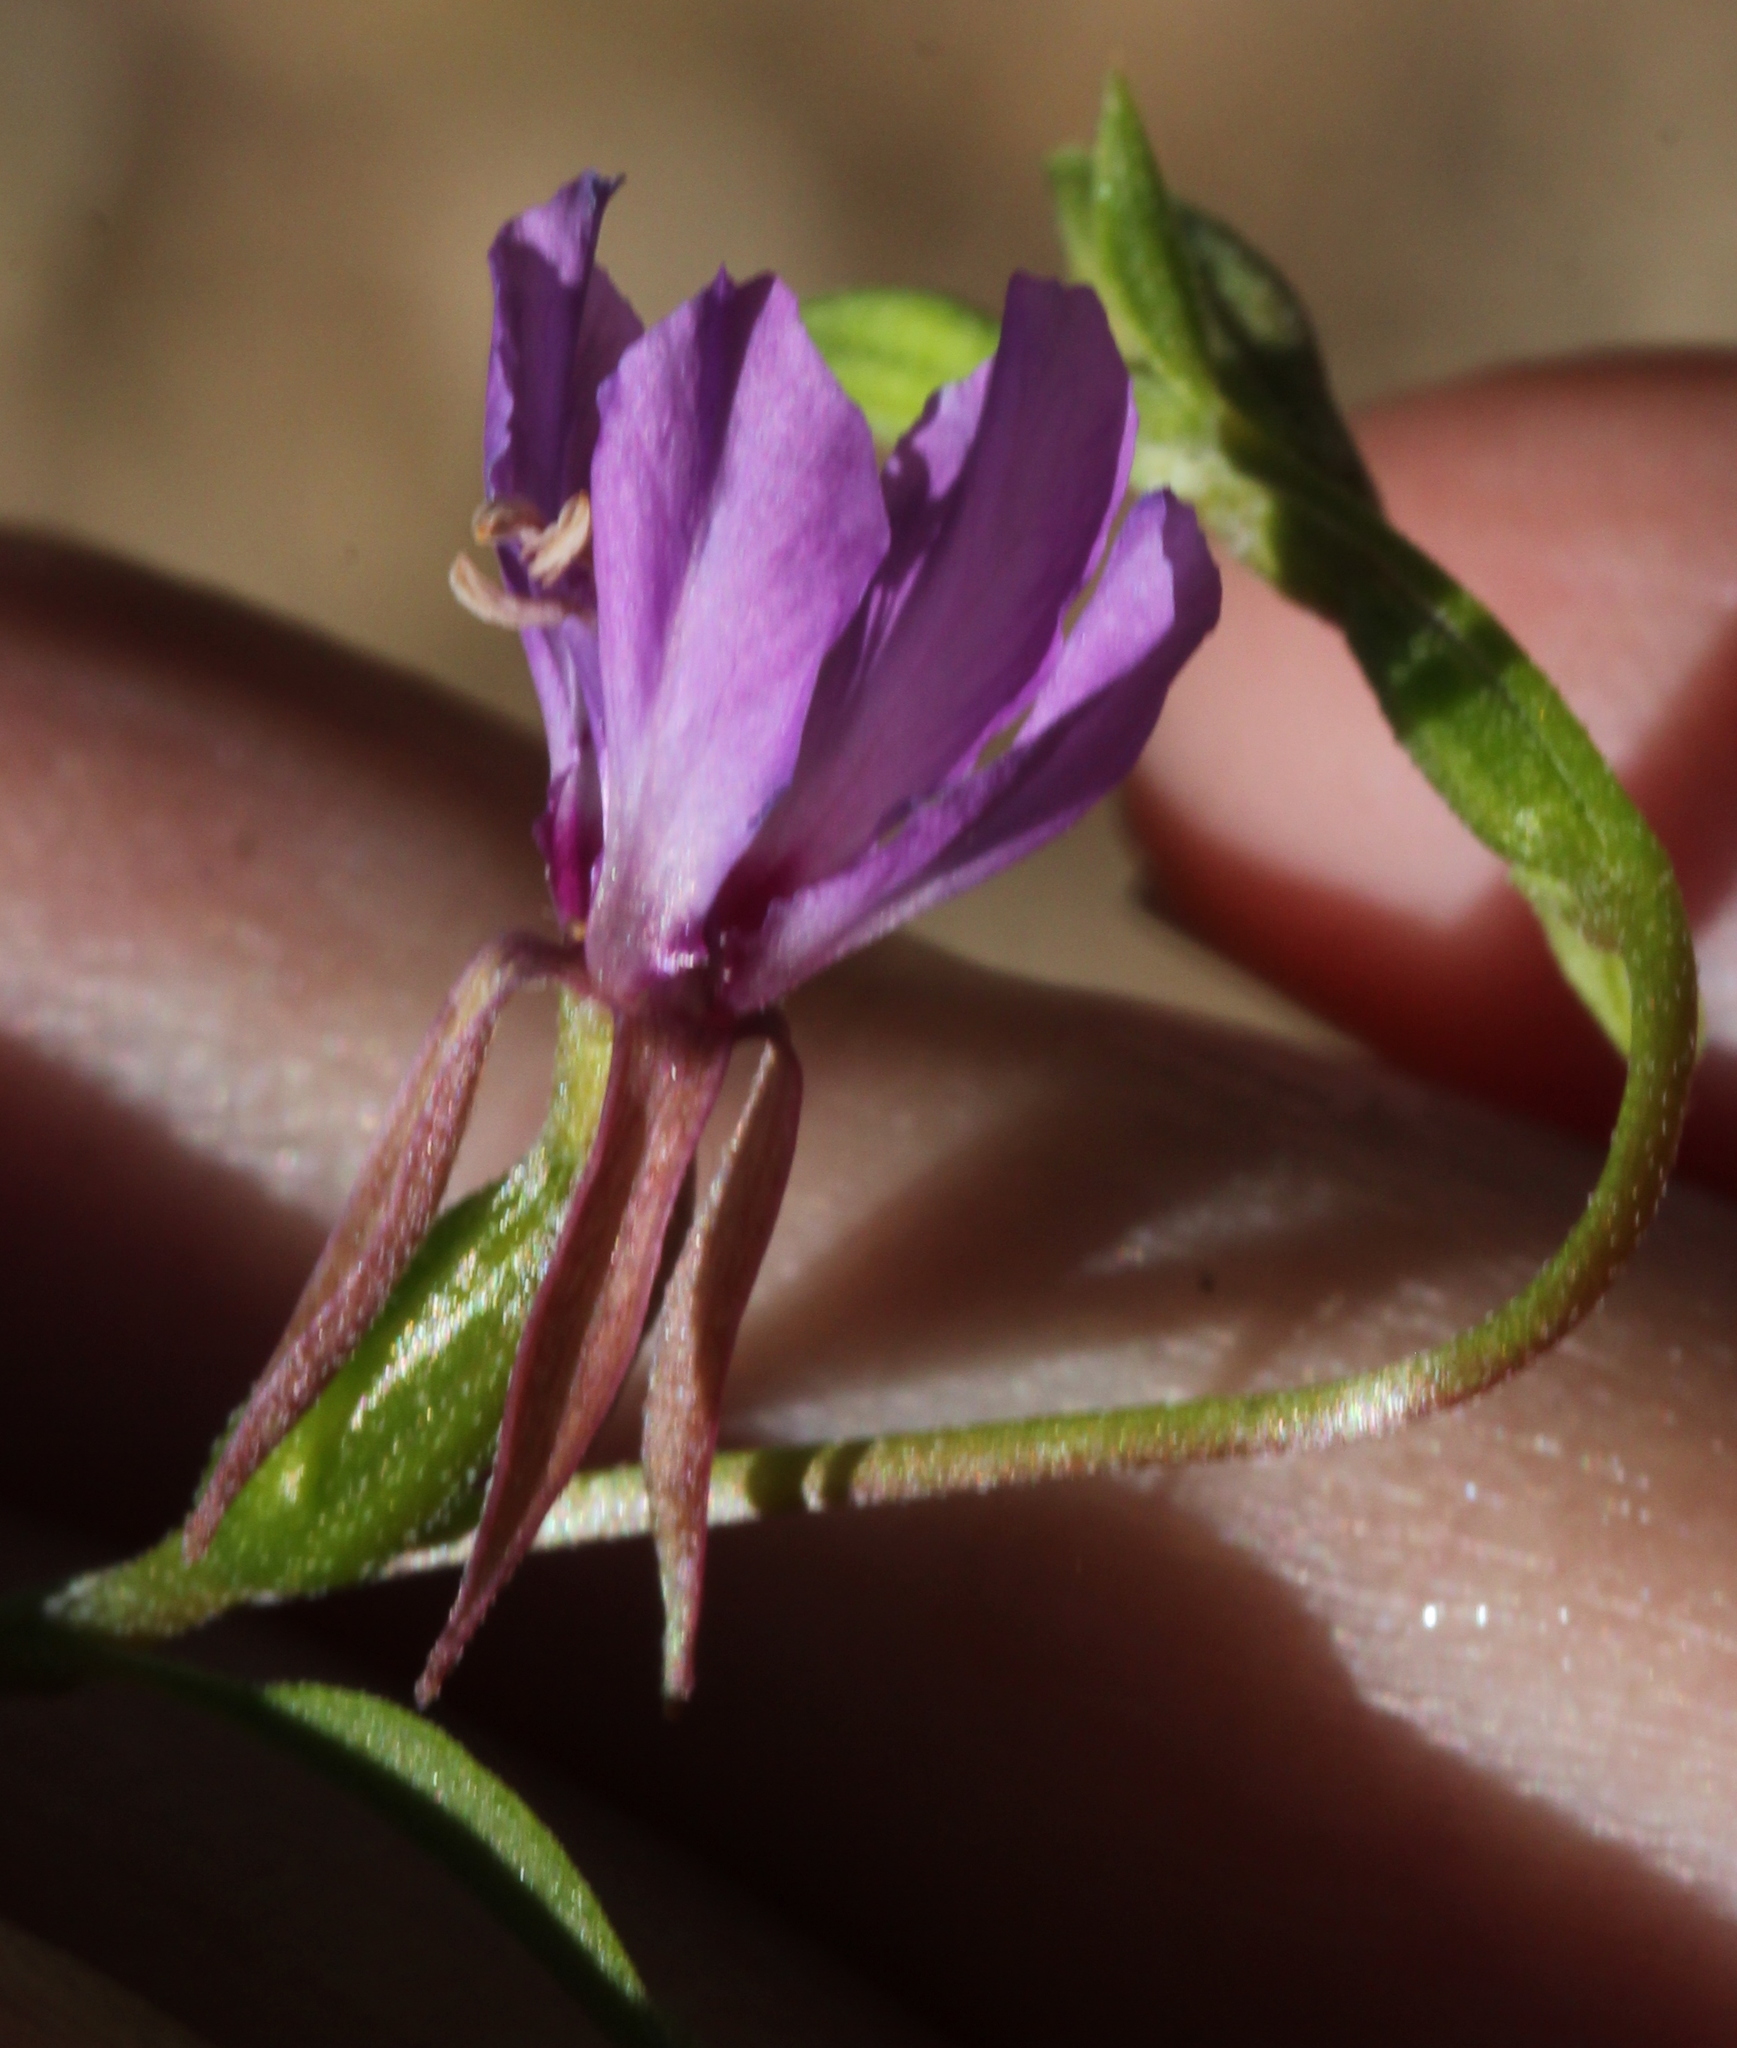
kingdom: Plantae
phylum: Tracheophyta
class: Magnoliopsida
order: Myrtales
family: Onagraceae
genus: Clarkia
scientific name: Clarkia rhomboidea
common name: Broadleaf clarkia
